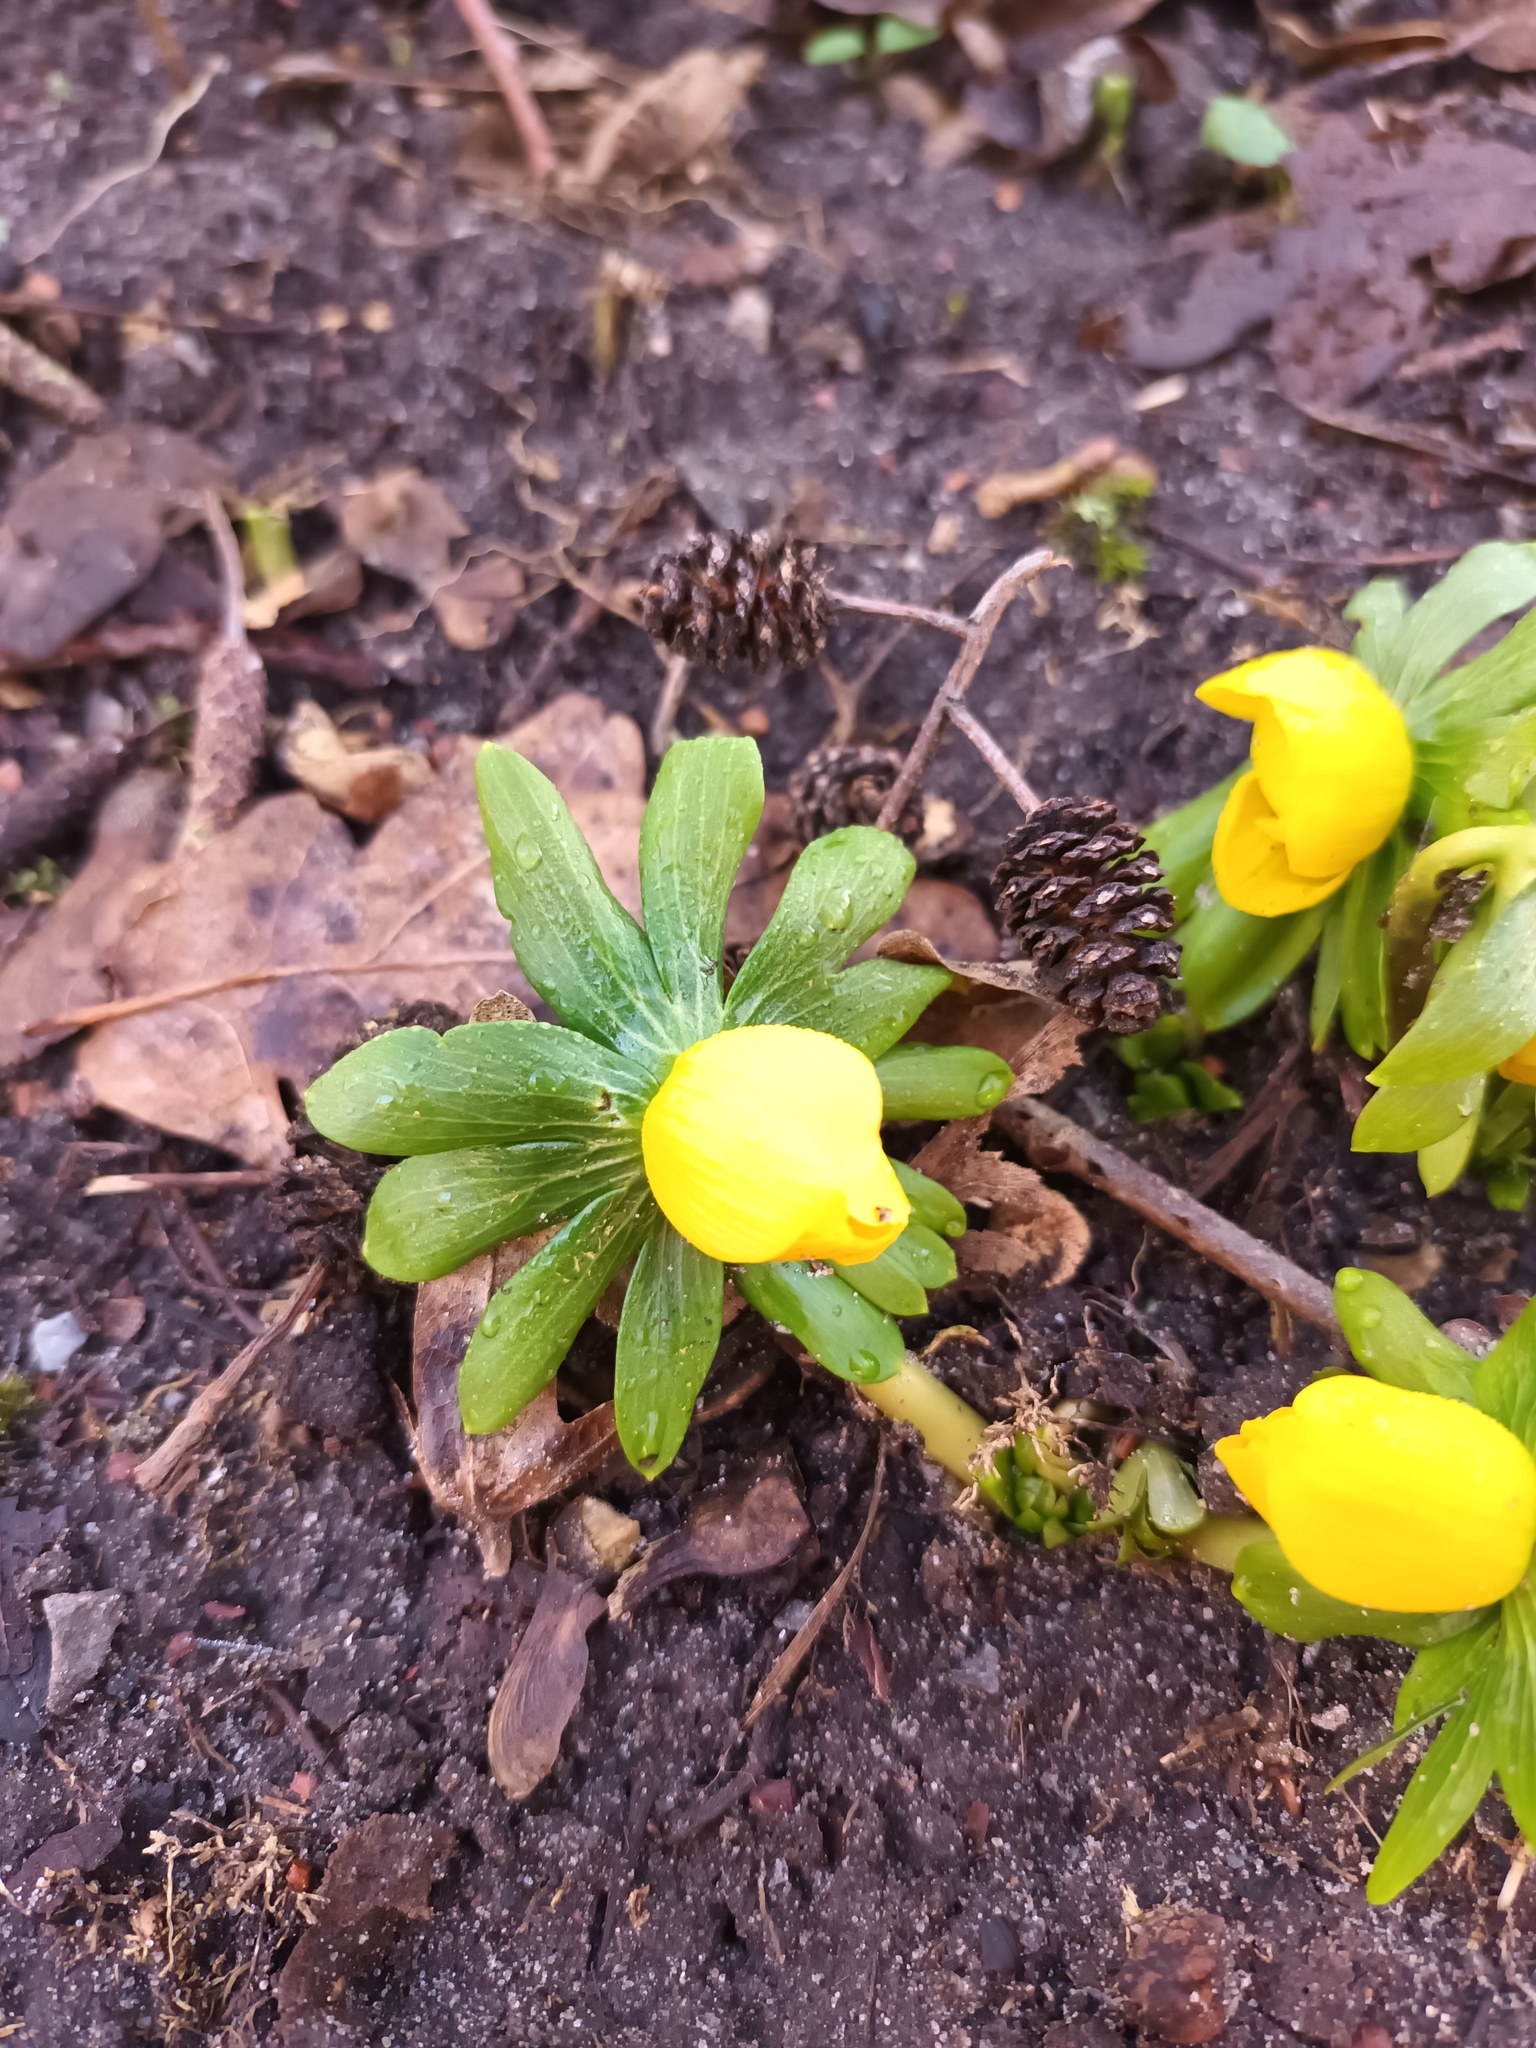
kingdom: Plantae
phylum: Tracheophyta
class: Magnoliopsida
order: Ranunculales
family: Ranunculaceae
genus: Eranthis
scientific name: Eranthis hyemalis
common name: Winter aconite
